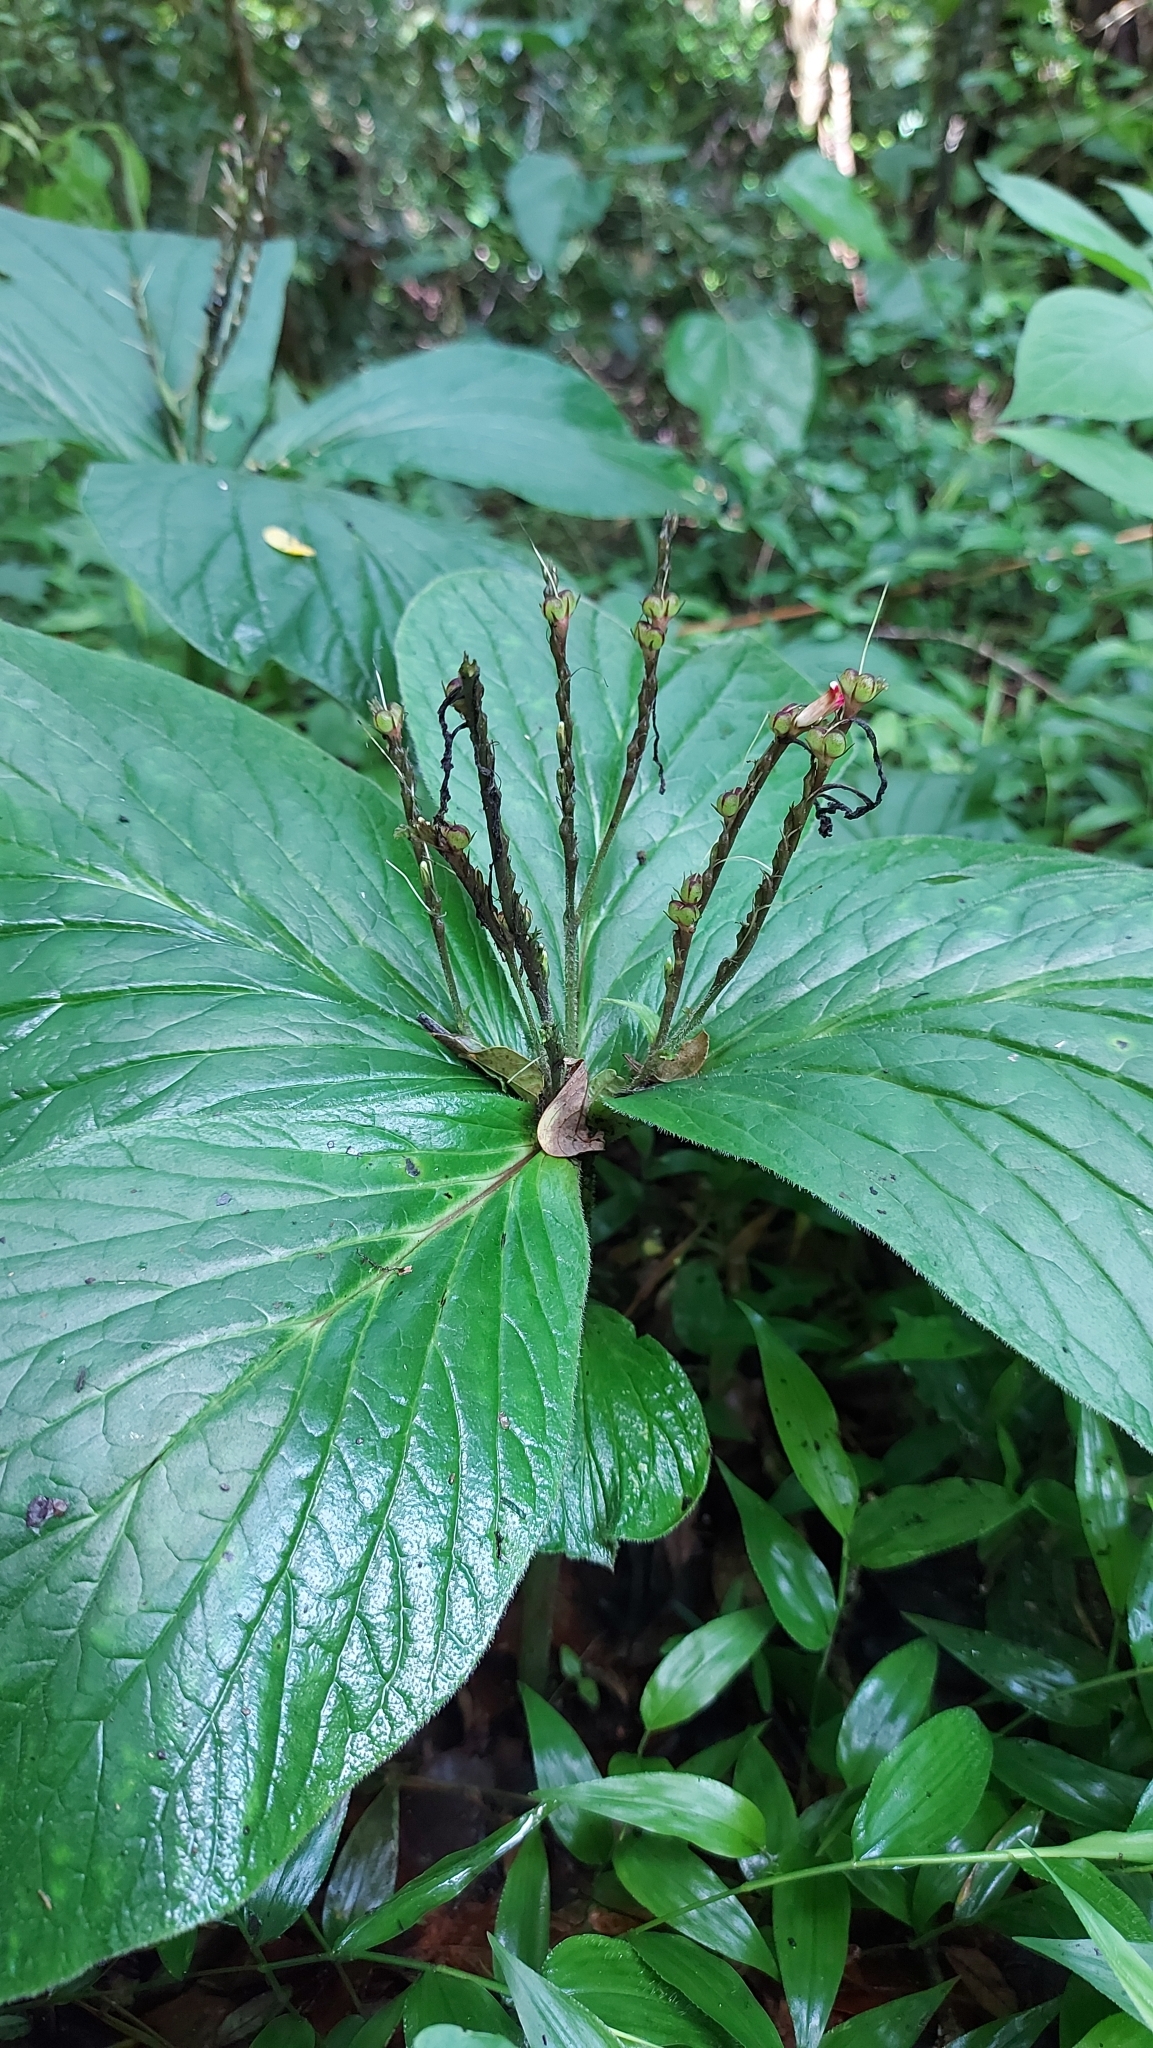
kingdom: Plantae
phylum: Tracheophyta
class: Magnoliopsida
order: Gentianales
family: Loganiaceae
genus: Spigelia
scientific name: Spigelia splendens
